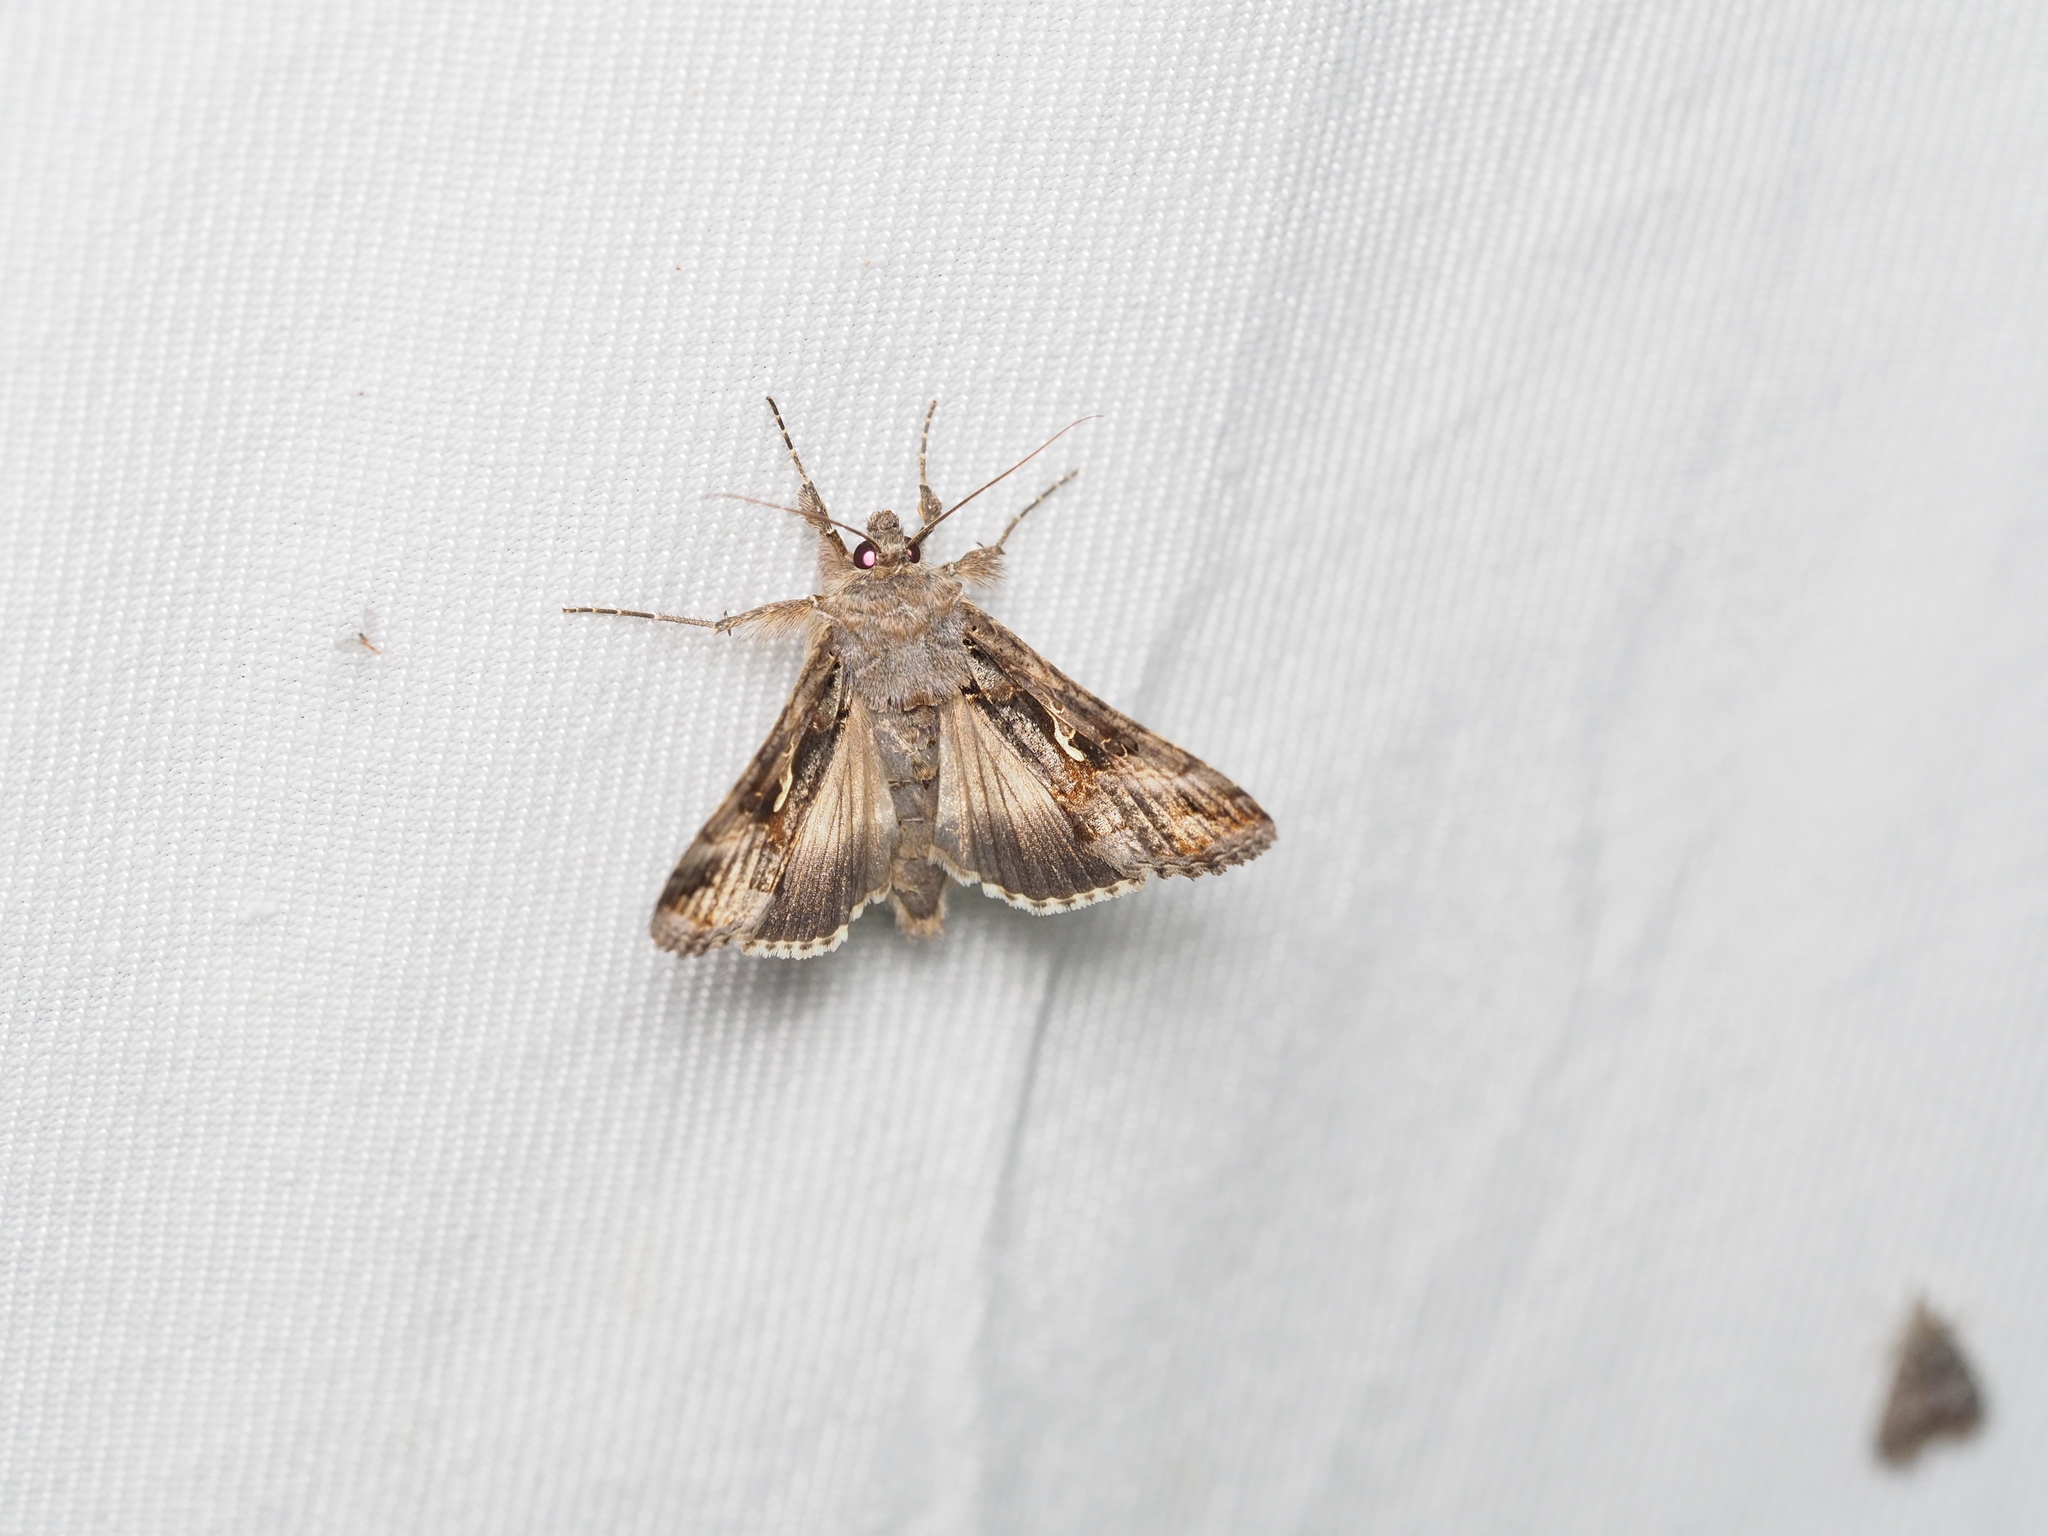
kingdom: Animalia
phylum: Arthropoda
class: Insecta
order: Lepidoptera
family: Noctuidae
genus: Autographa
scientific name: Autographa gamma
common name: Silver y
